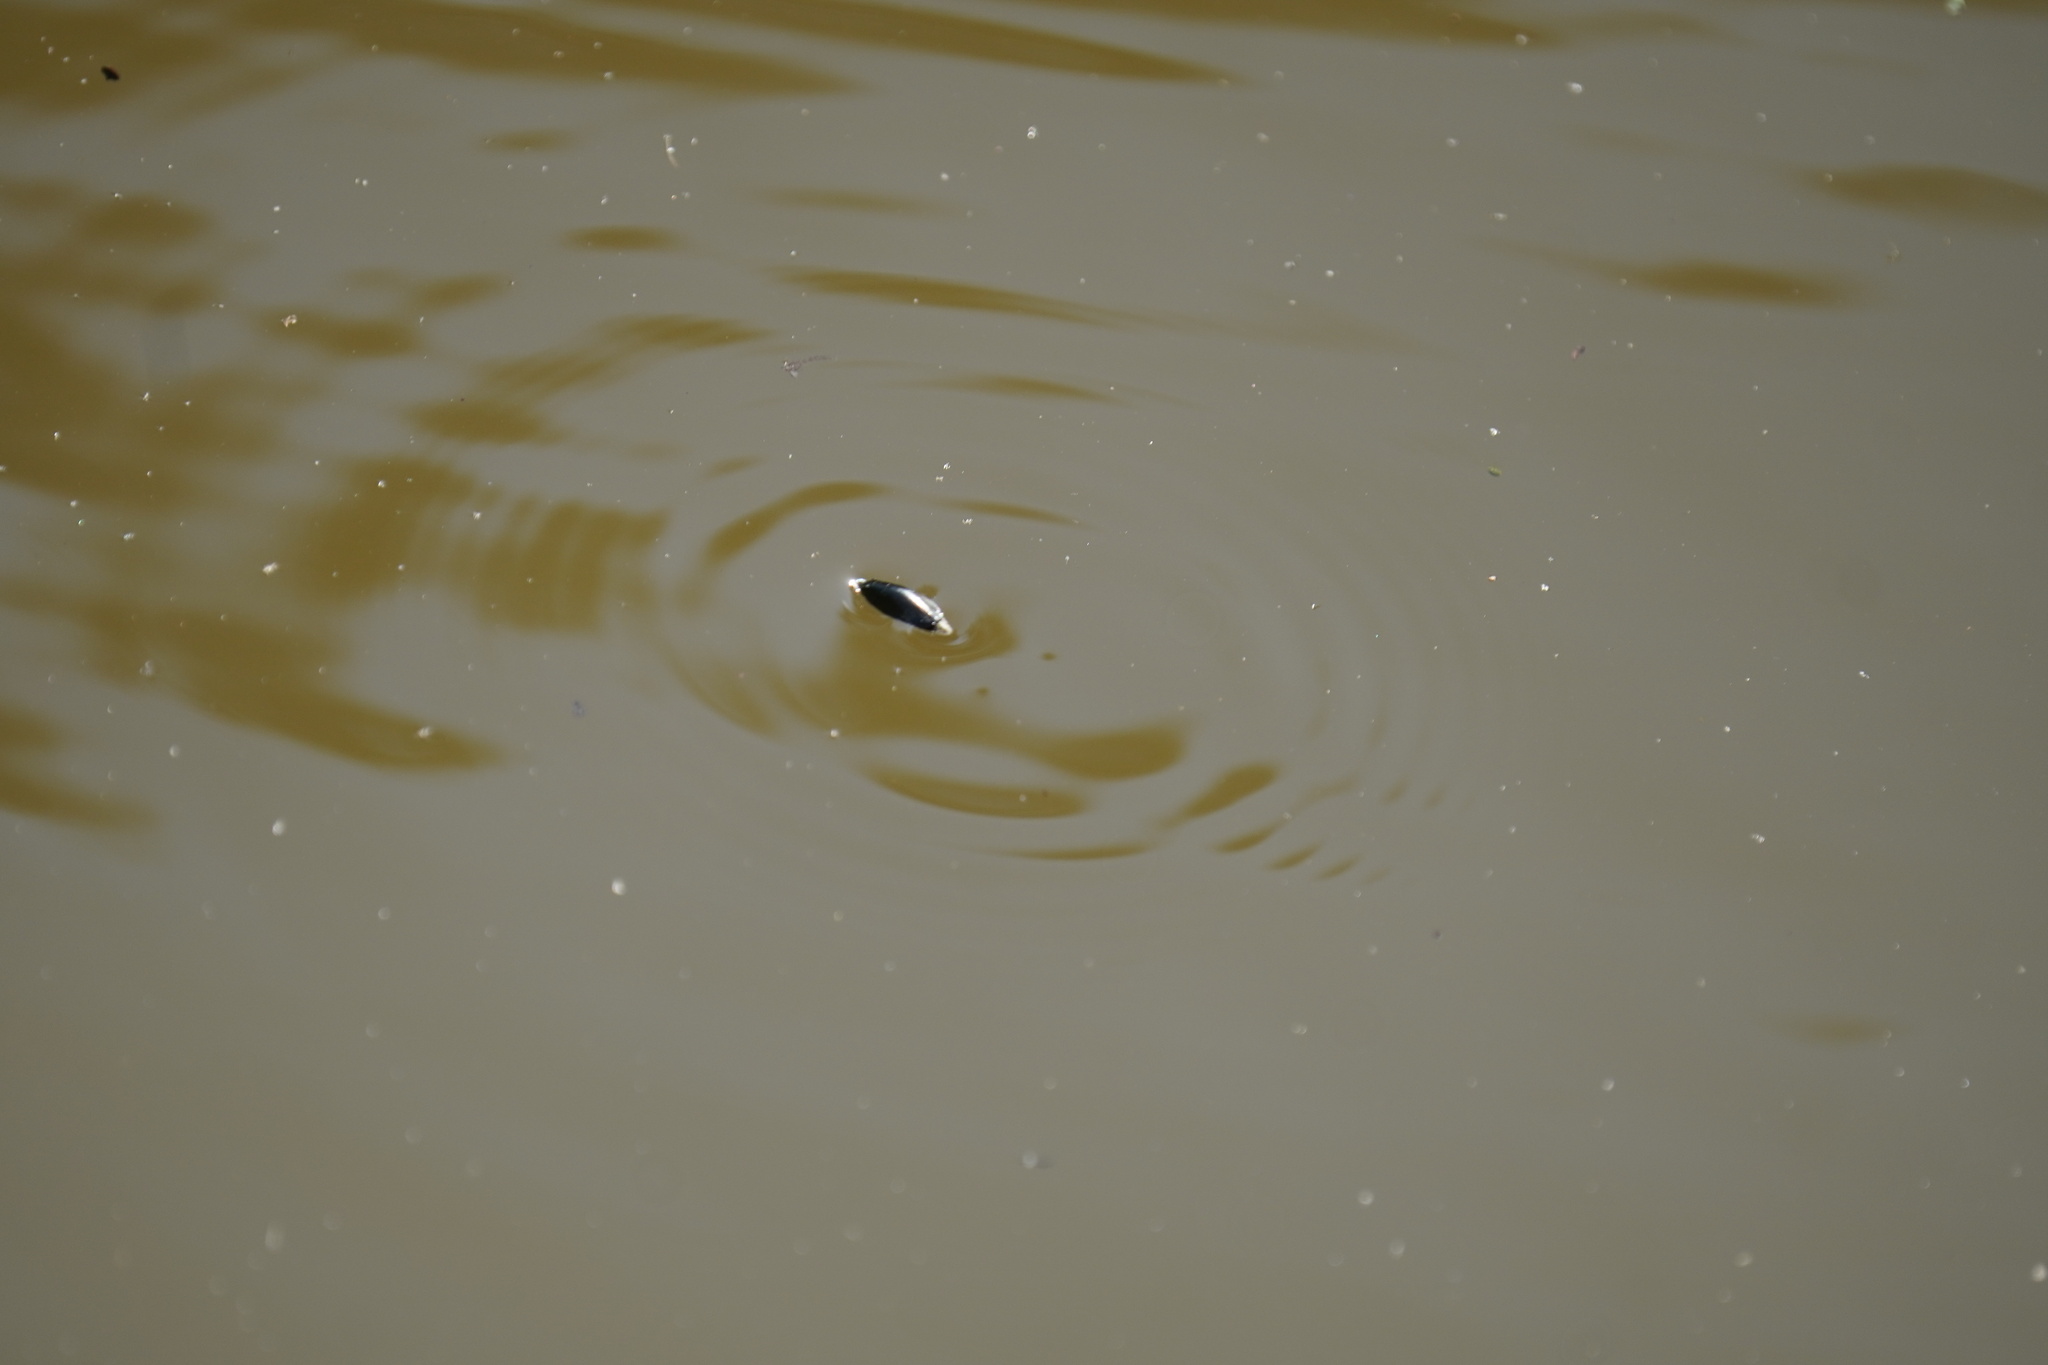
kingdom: Animalia
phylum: Arthropoda
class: Insecta
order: Coleoptera
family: Gyrinidae
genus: Dineutus
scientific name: Dineutus
